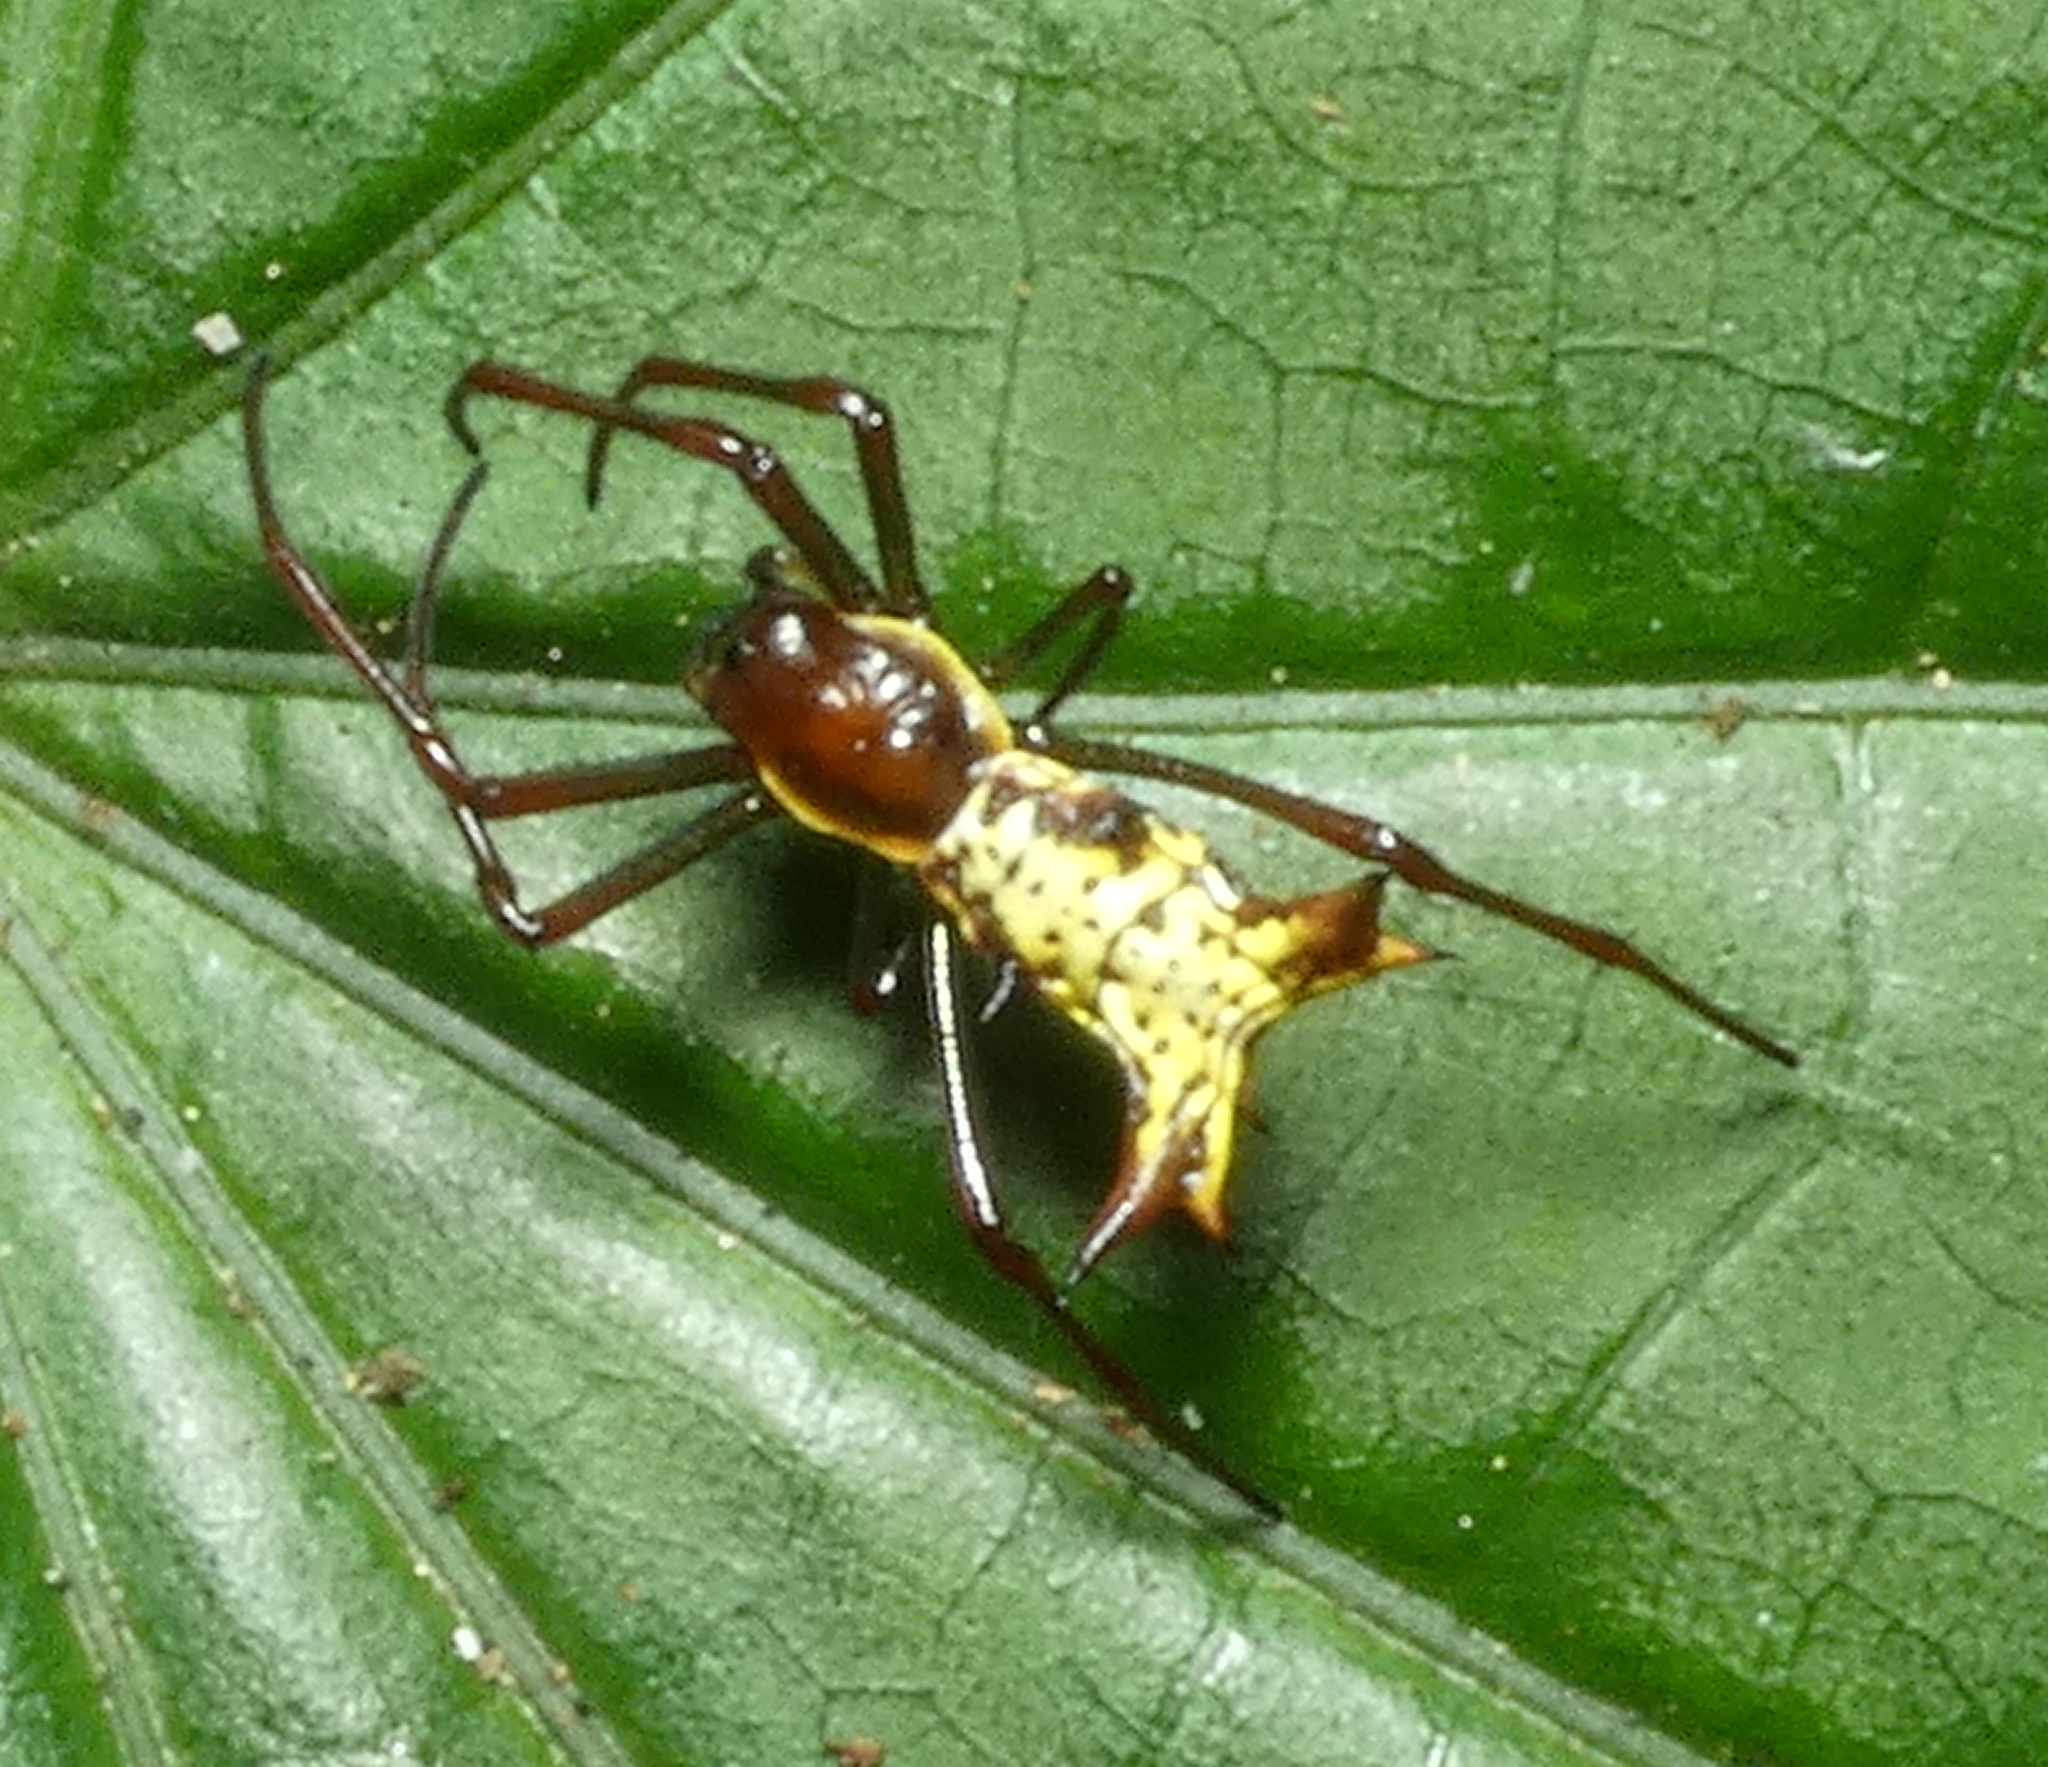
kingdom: Animalia
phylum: Arthropoda
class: Arachnida
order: Araneae
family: Araneidae
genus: Micrathena
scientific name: Micrathena fissispina
